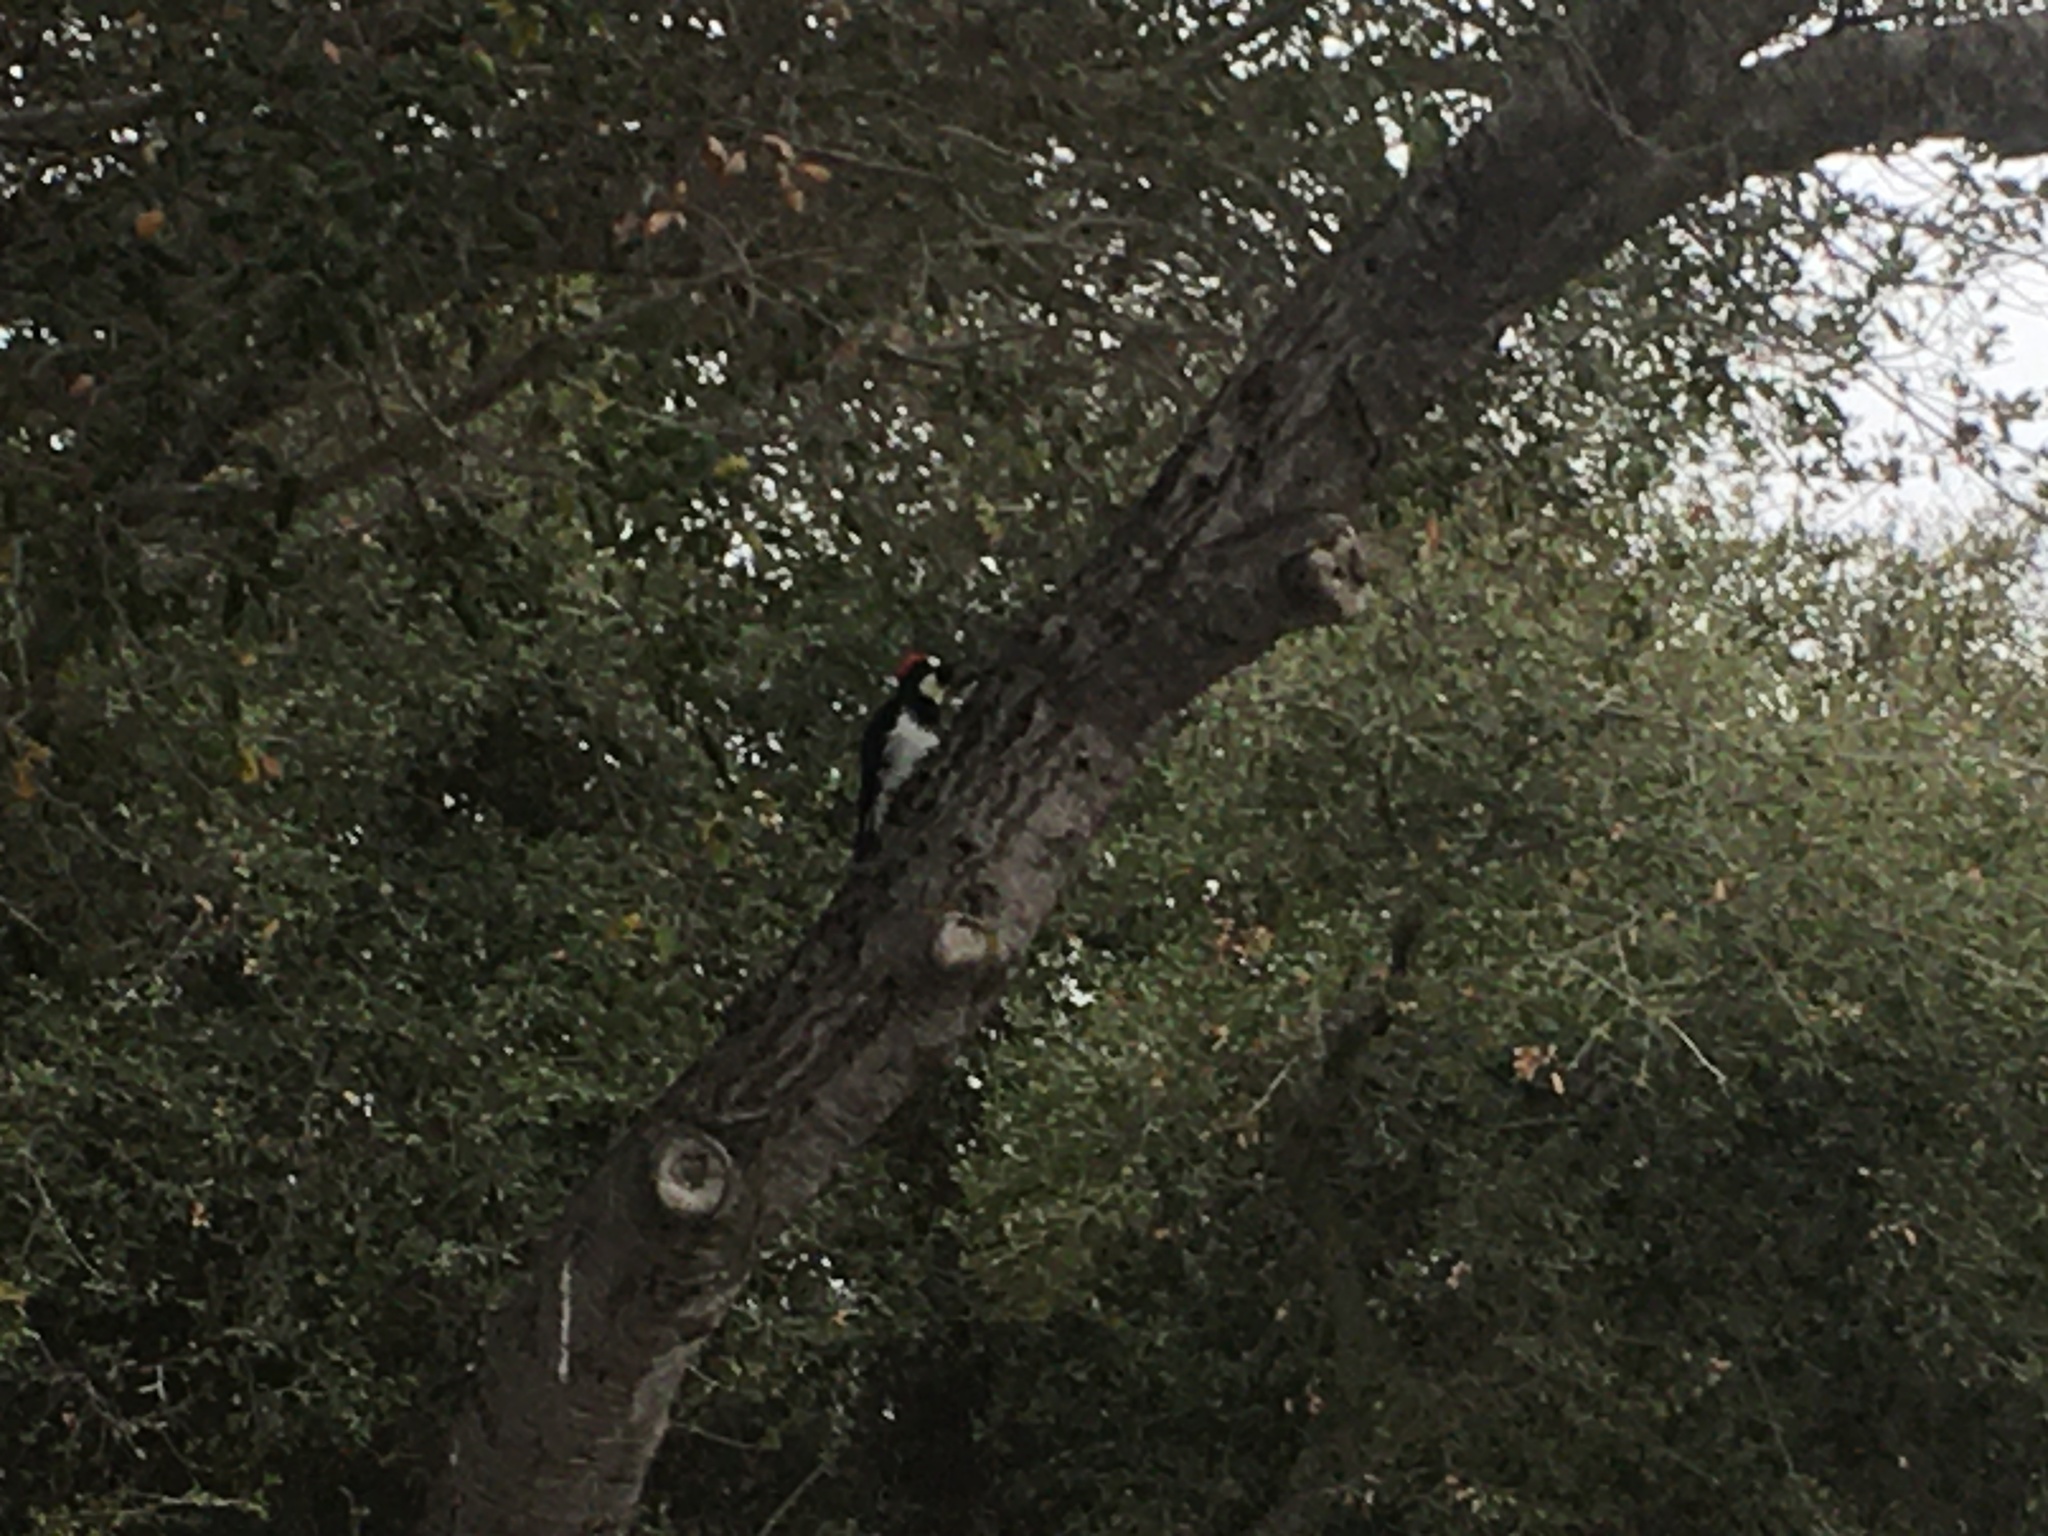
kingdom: Animalia
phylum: Chordata
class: Aves
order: Piciformes
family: Picidae
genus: Melanerpes
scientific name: Melanerpes formicivorus
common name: Acorn woodpecker
